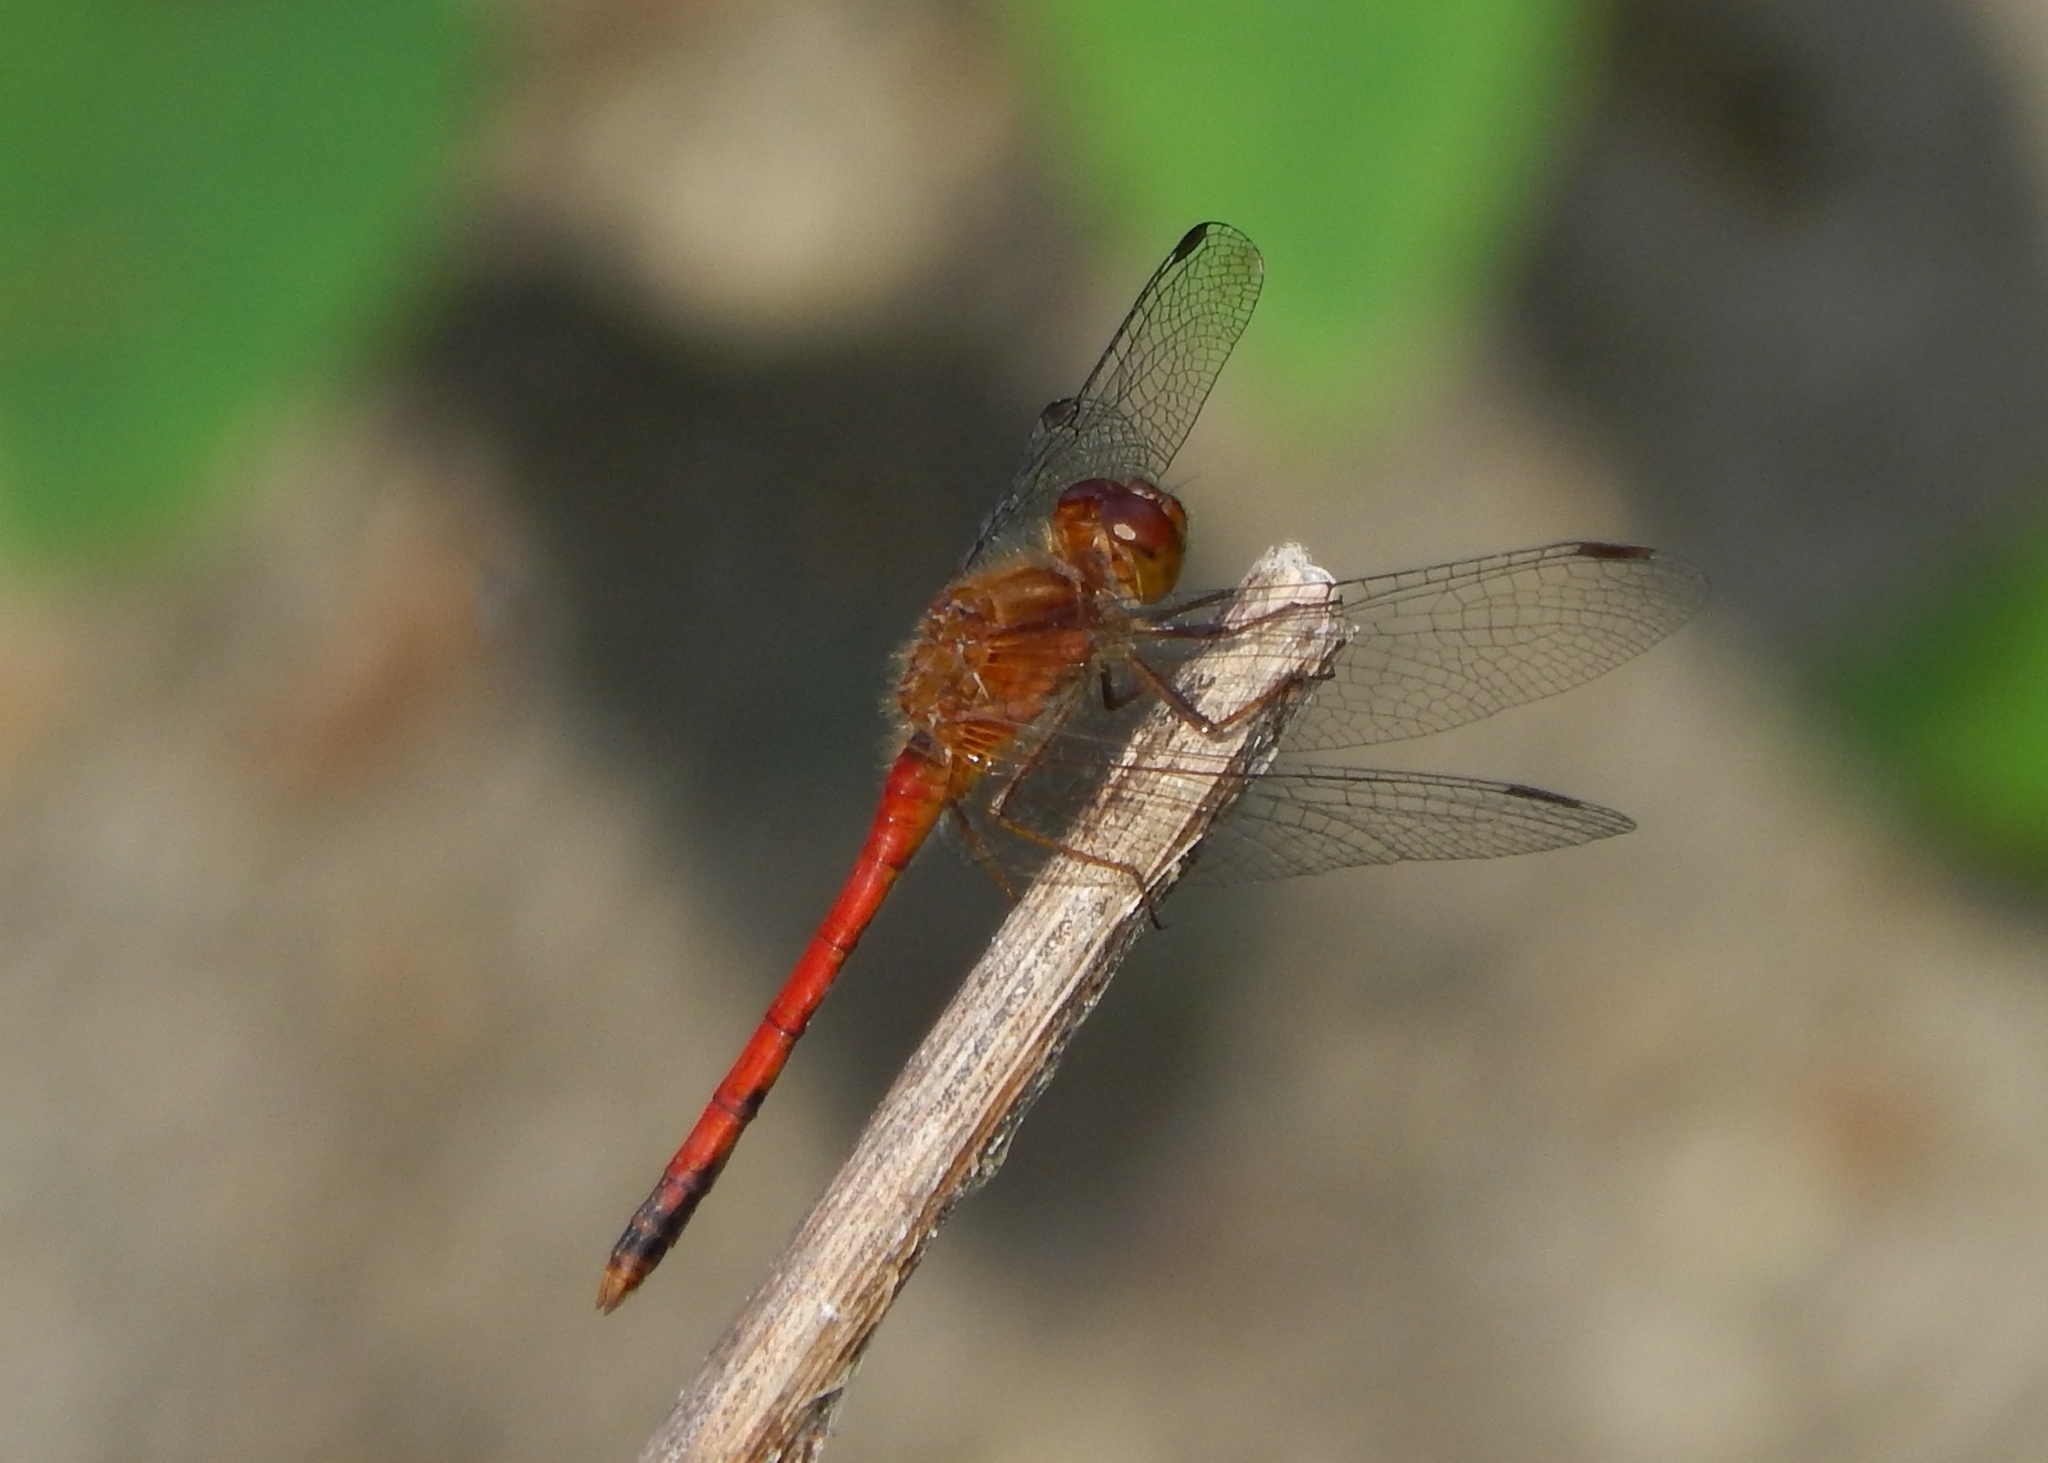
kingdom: Animalia
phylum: Arthropoda
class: Insecta
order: Odonata
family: Libellulidae
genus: Sympetrum
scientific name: Sympetrum vicinum
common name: Autumn meadowhawk
